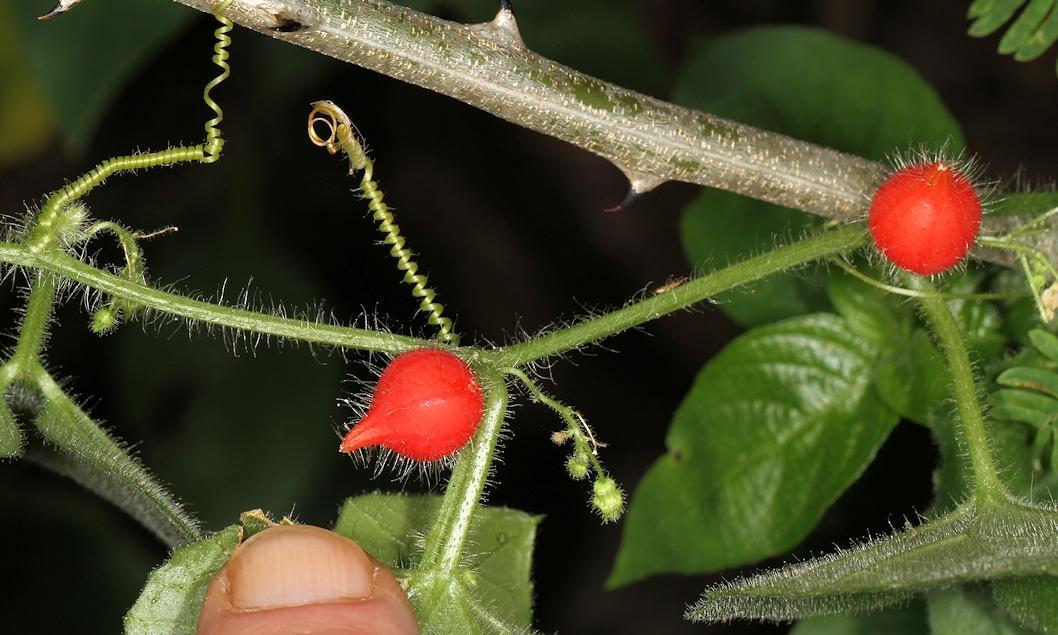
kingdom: Plantae
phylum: Tracheophyta
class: Magnoliopsida
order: Cucurbitales
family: Cucurbitaceae
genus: Kedrostis
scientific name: Kedrostis foetidissima
